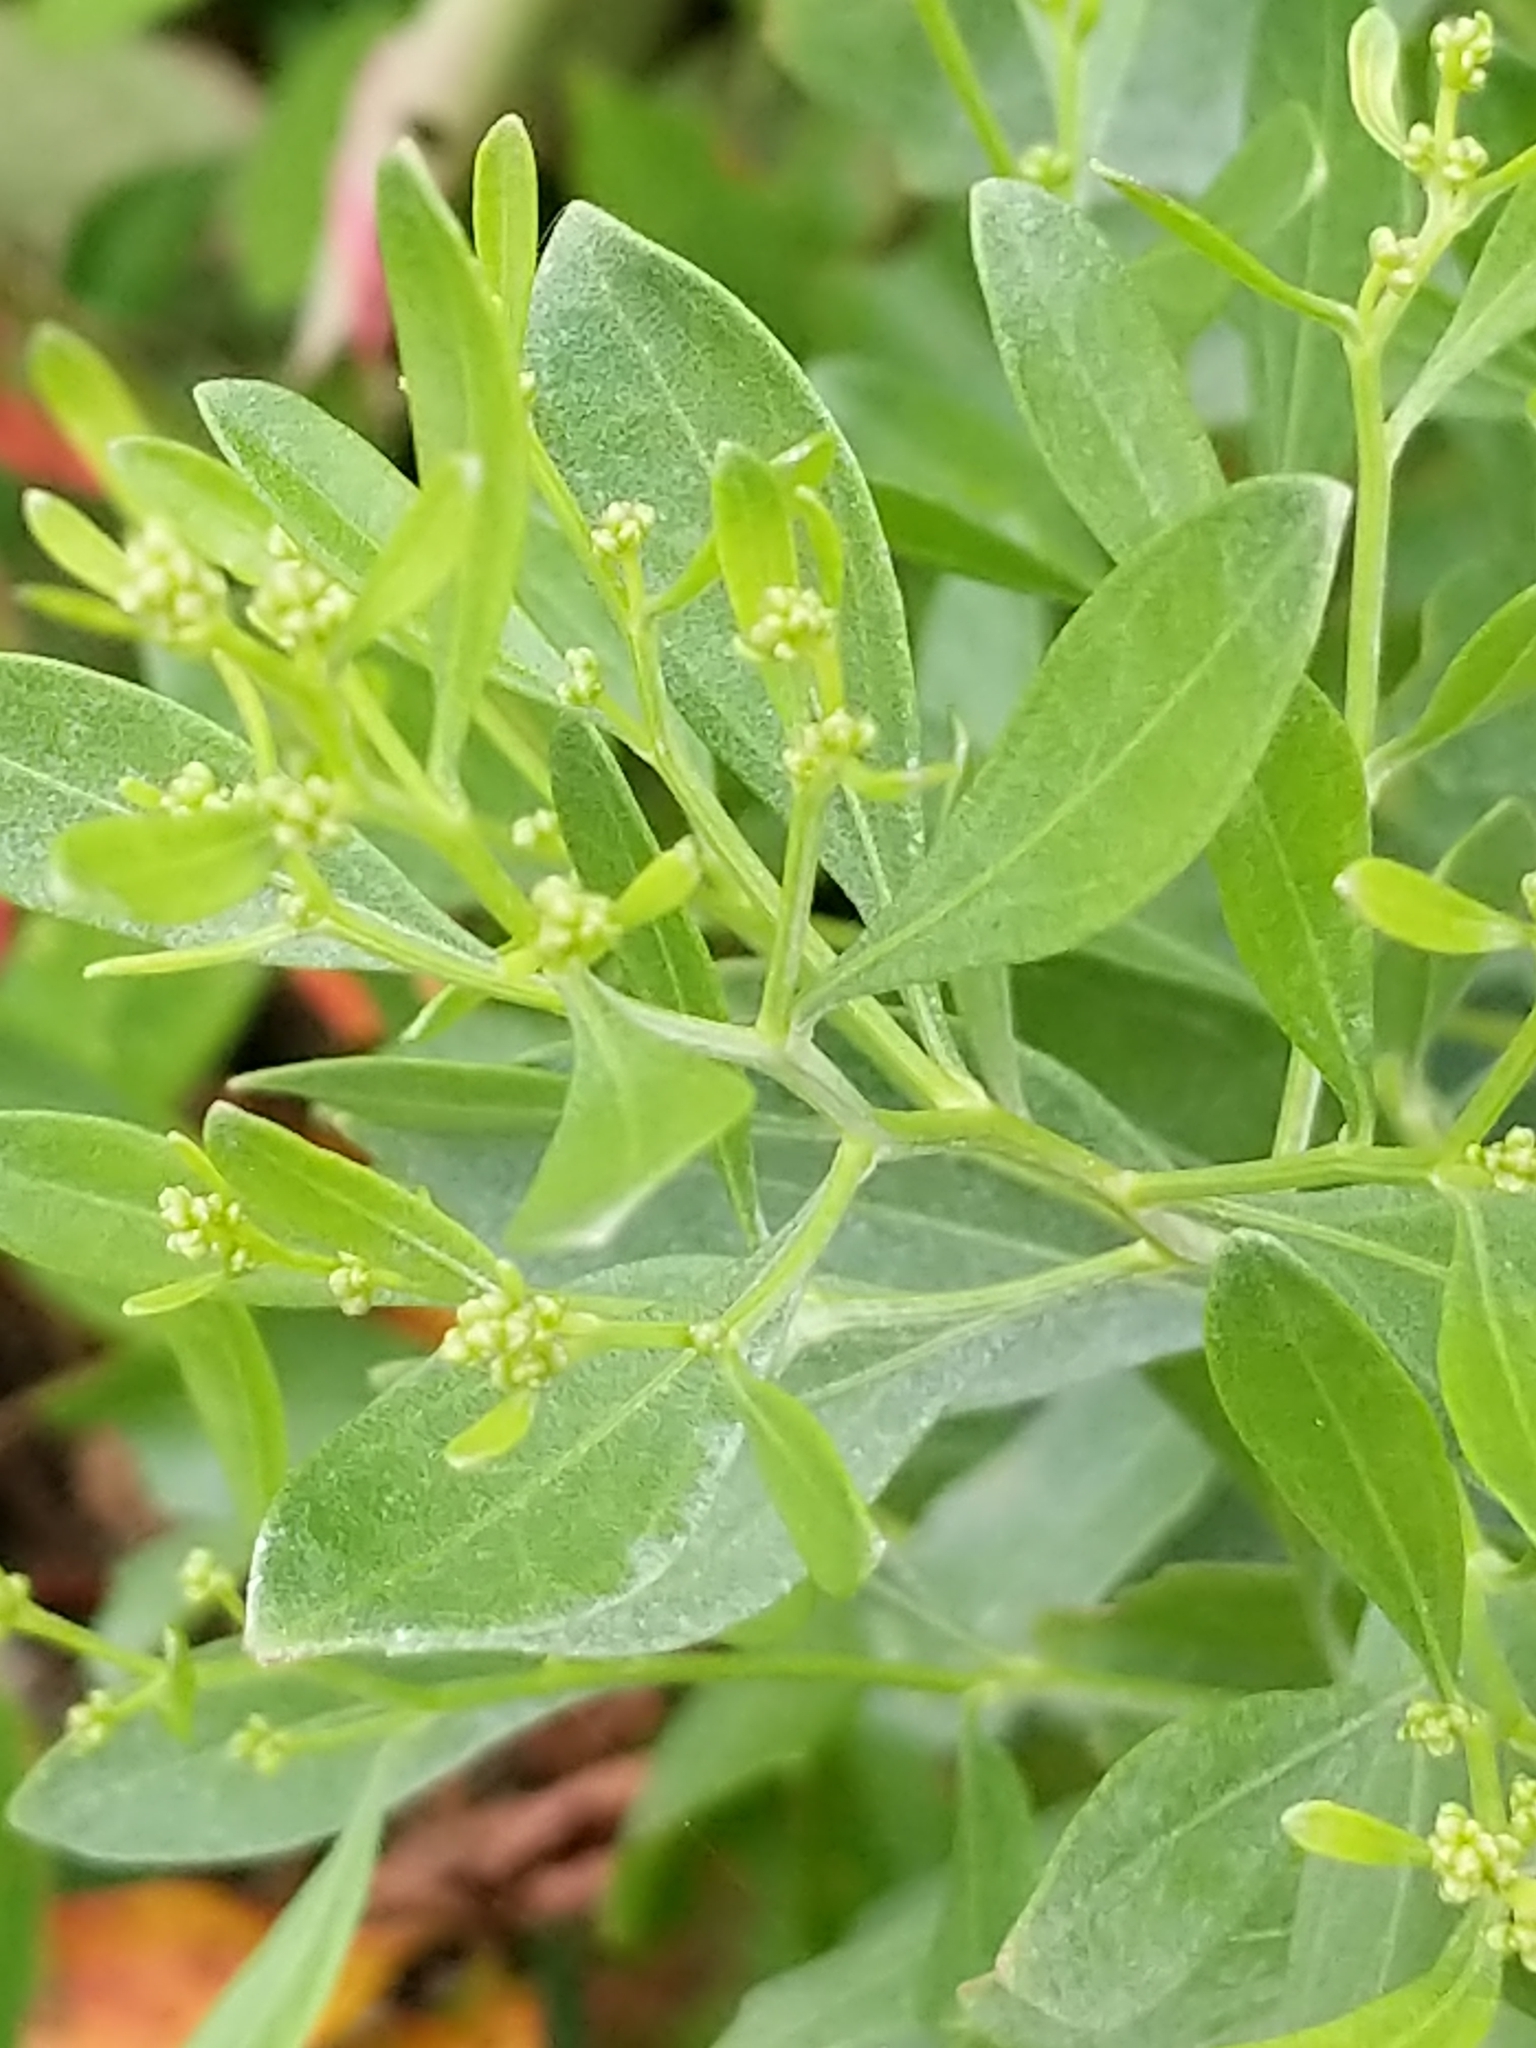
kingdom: Plantae
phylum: Tracheophyta
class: Magnoliopsida
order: Asterales
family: Asteraceae
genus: Baccharis
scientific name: Baccharis halimifolia
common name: Eastern baccharis
